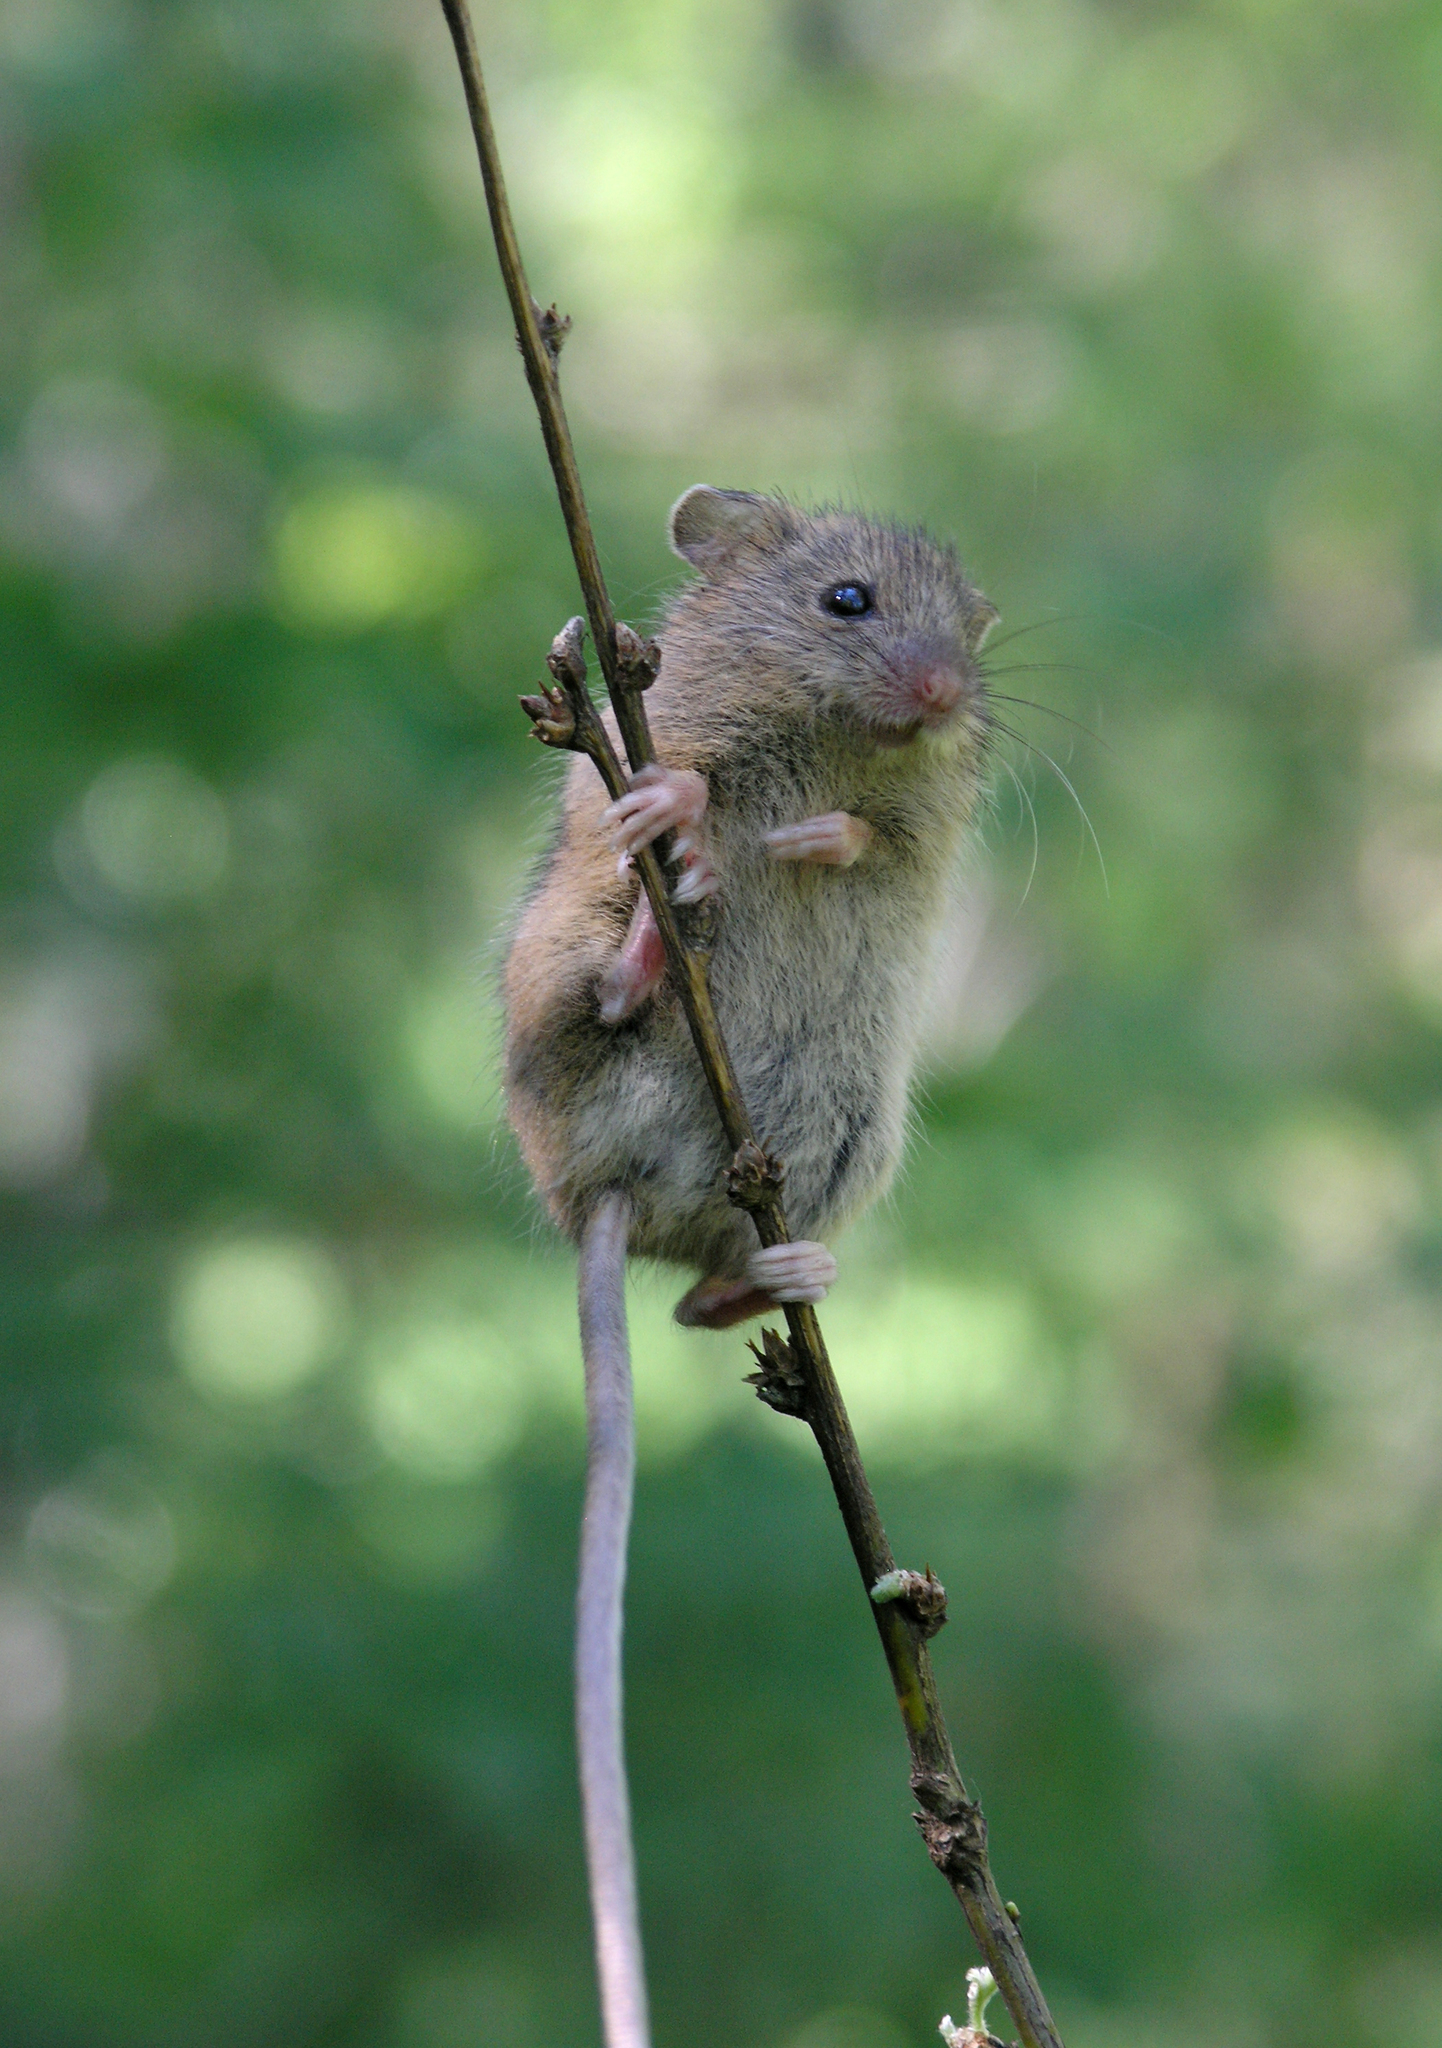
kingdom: Animalia
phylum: Chordata
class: Mammalia
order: Rodentia
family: Dipodidae
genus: Sicista
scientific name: Sicista betulina
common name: Northern birch mouse
